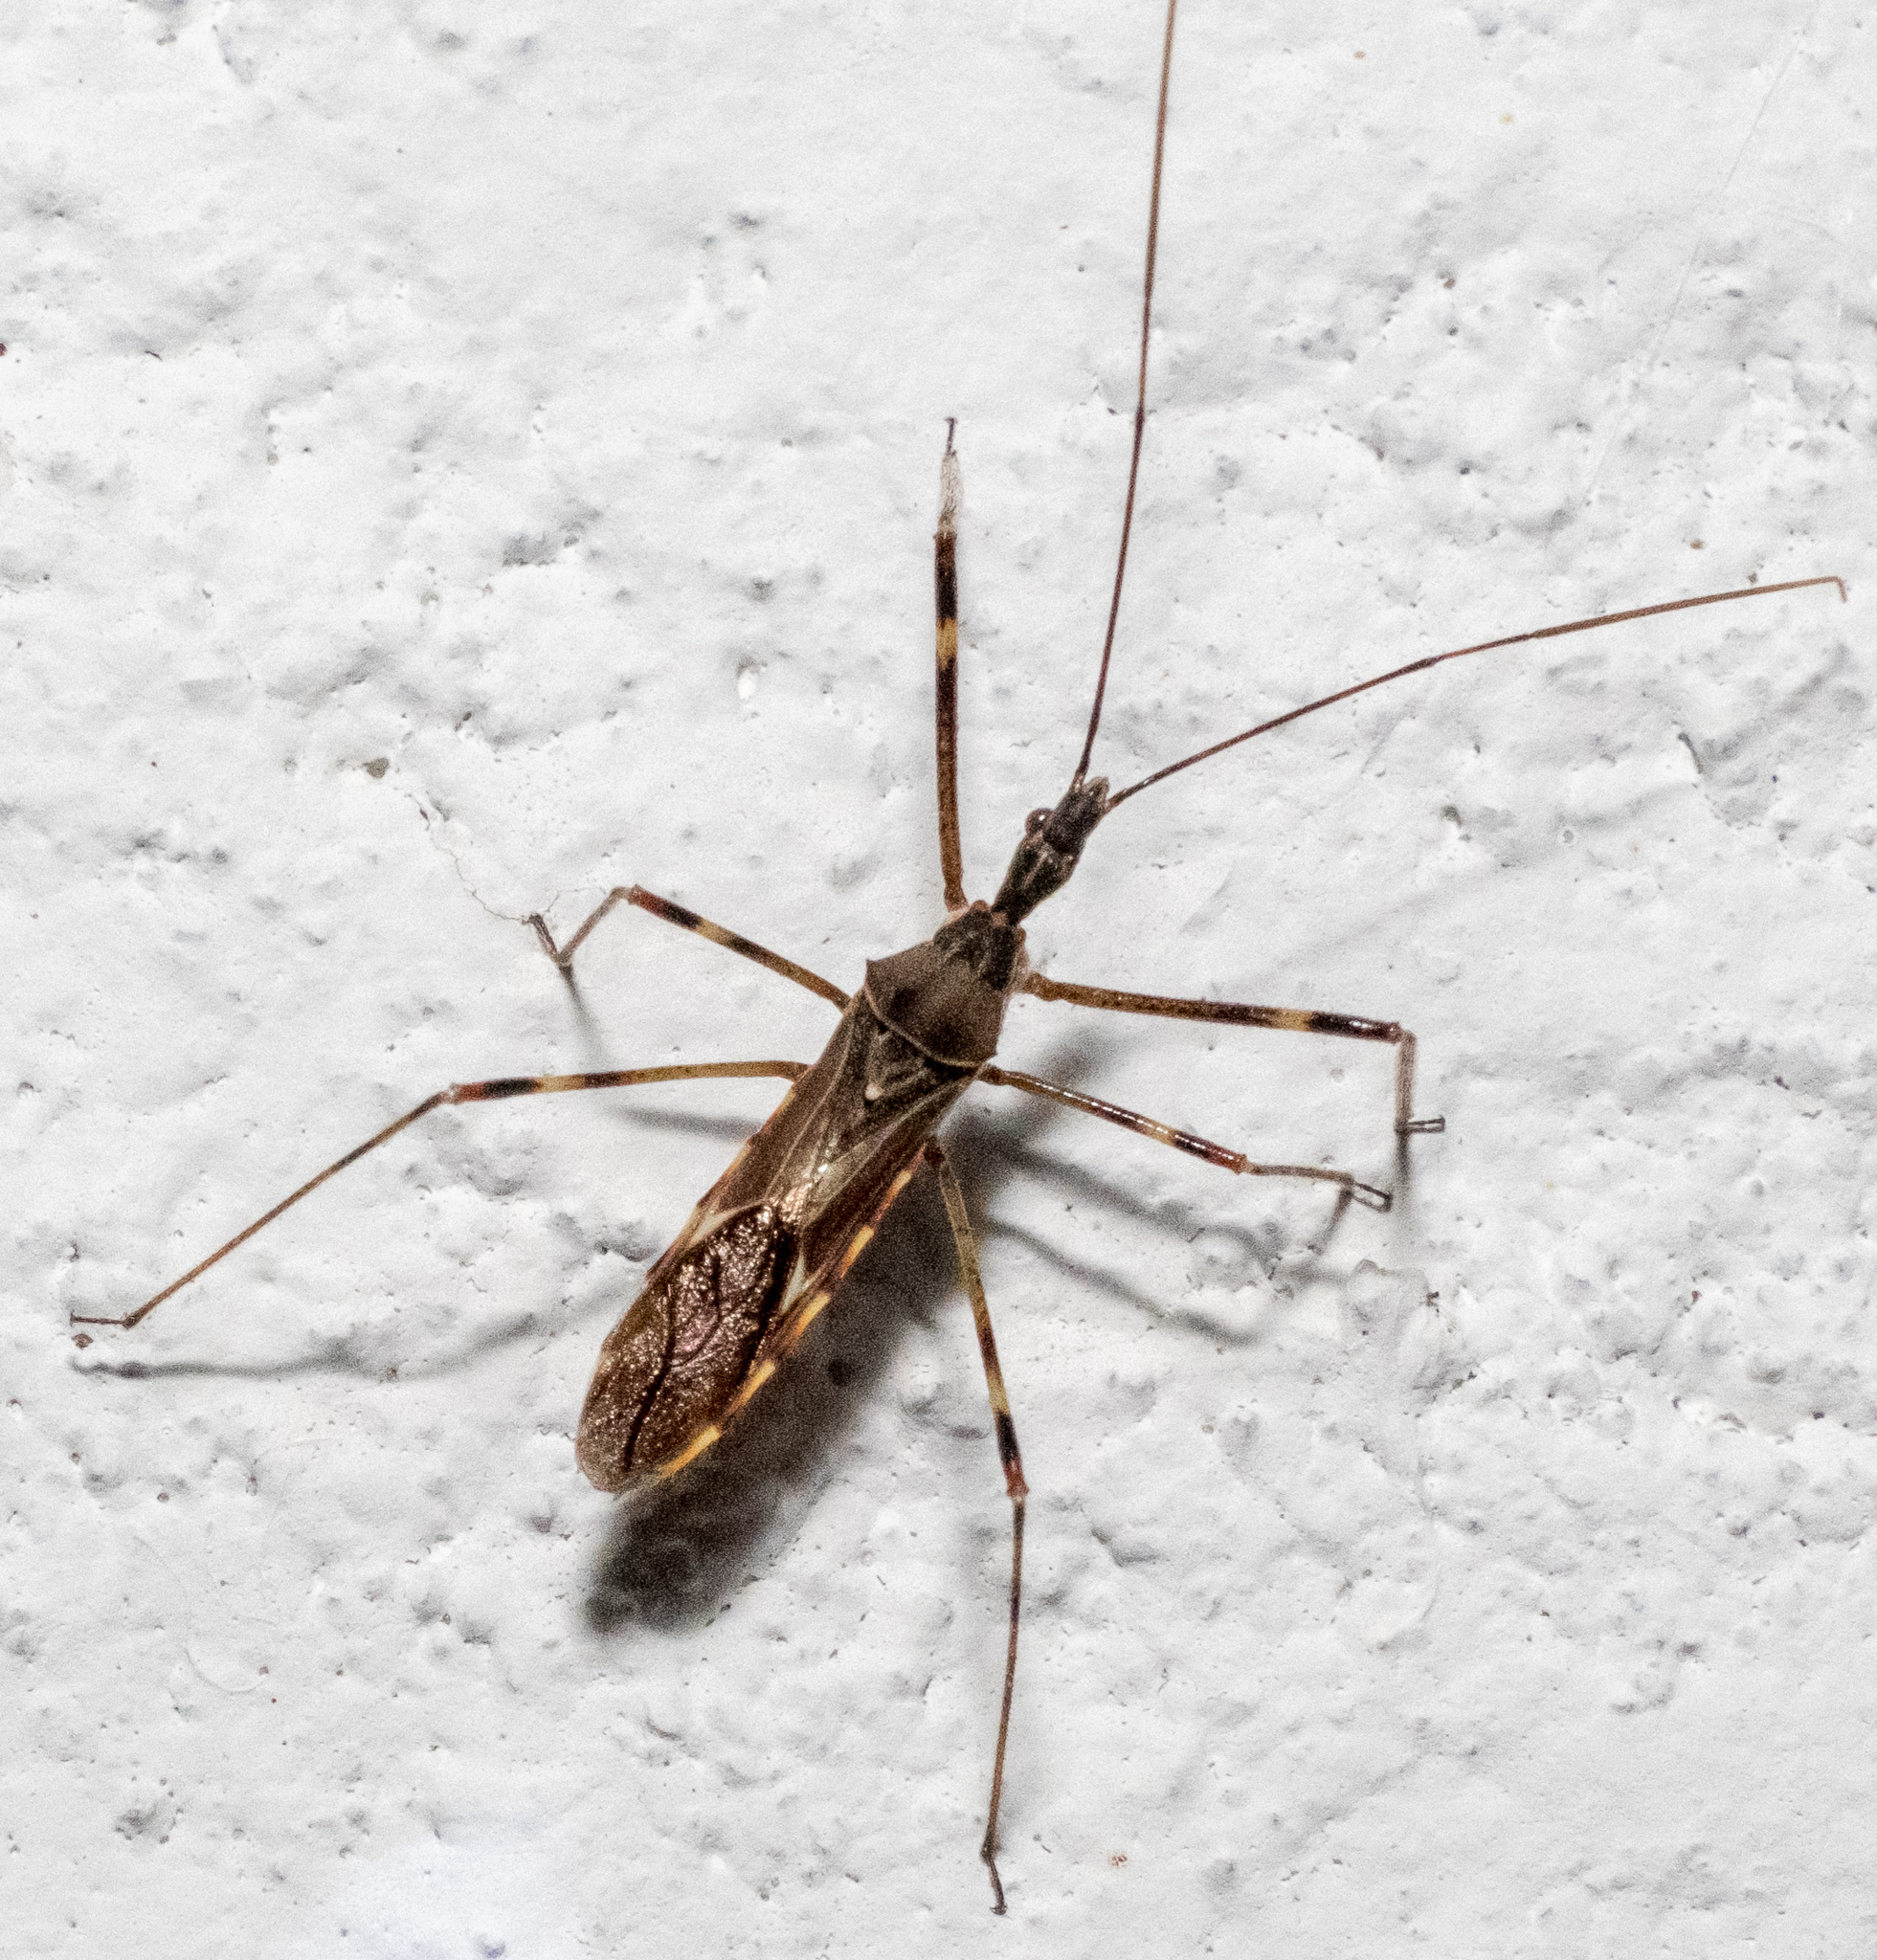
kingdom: Animalia
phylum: Arthropoda
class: Insecta
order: Hemiptera
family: Reduviidae
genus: Zelus
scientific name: Zelus tetracanthus
